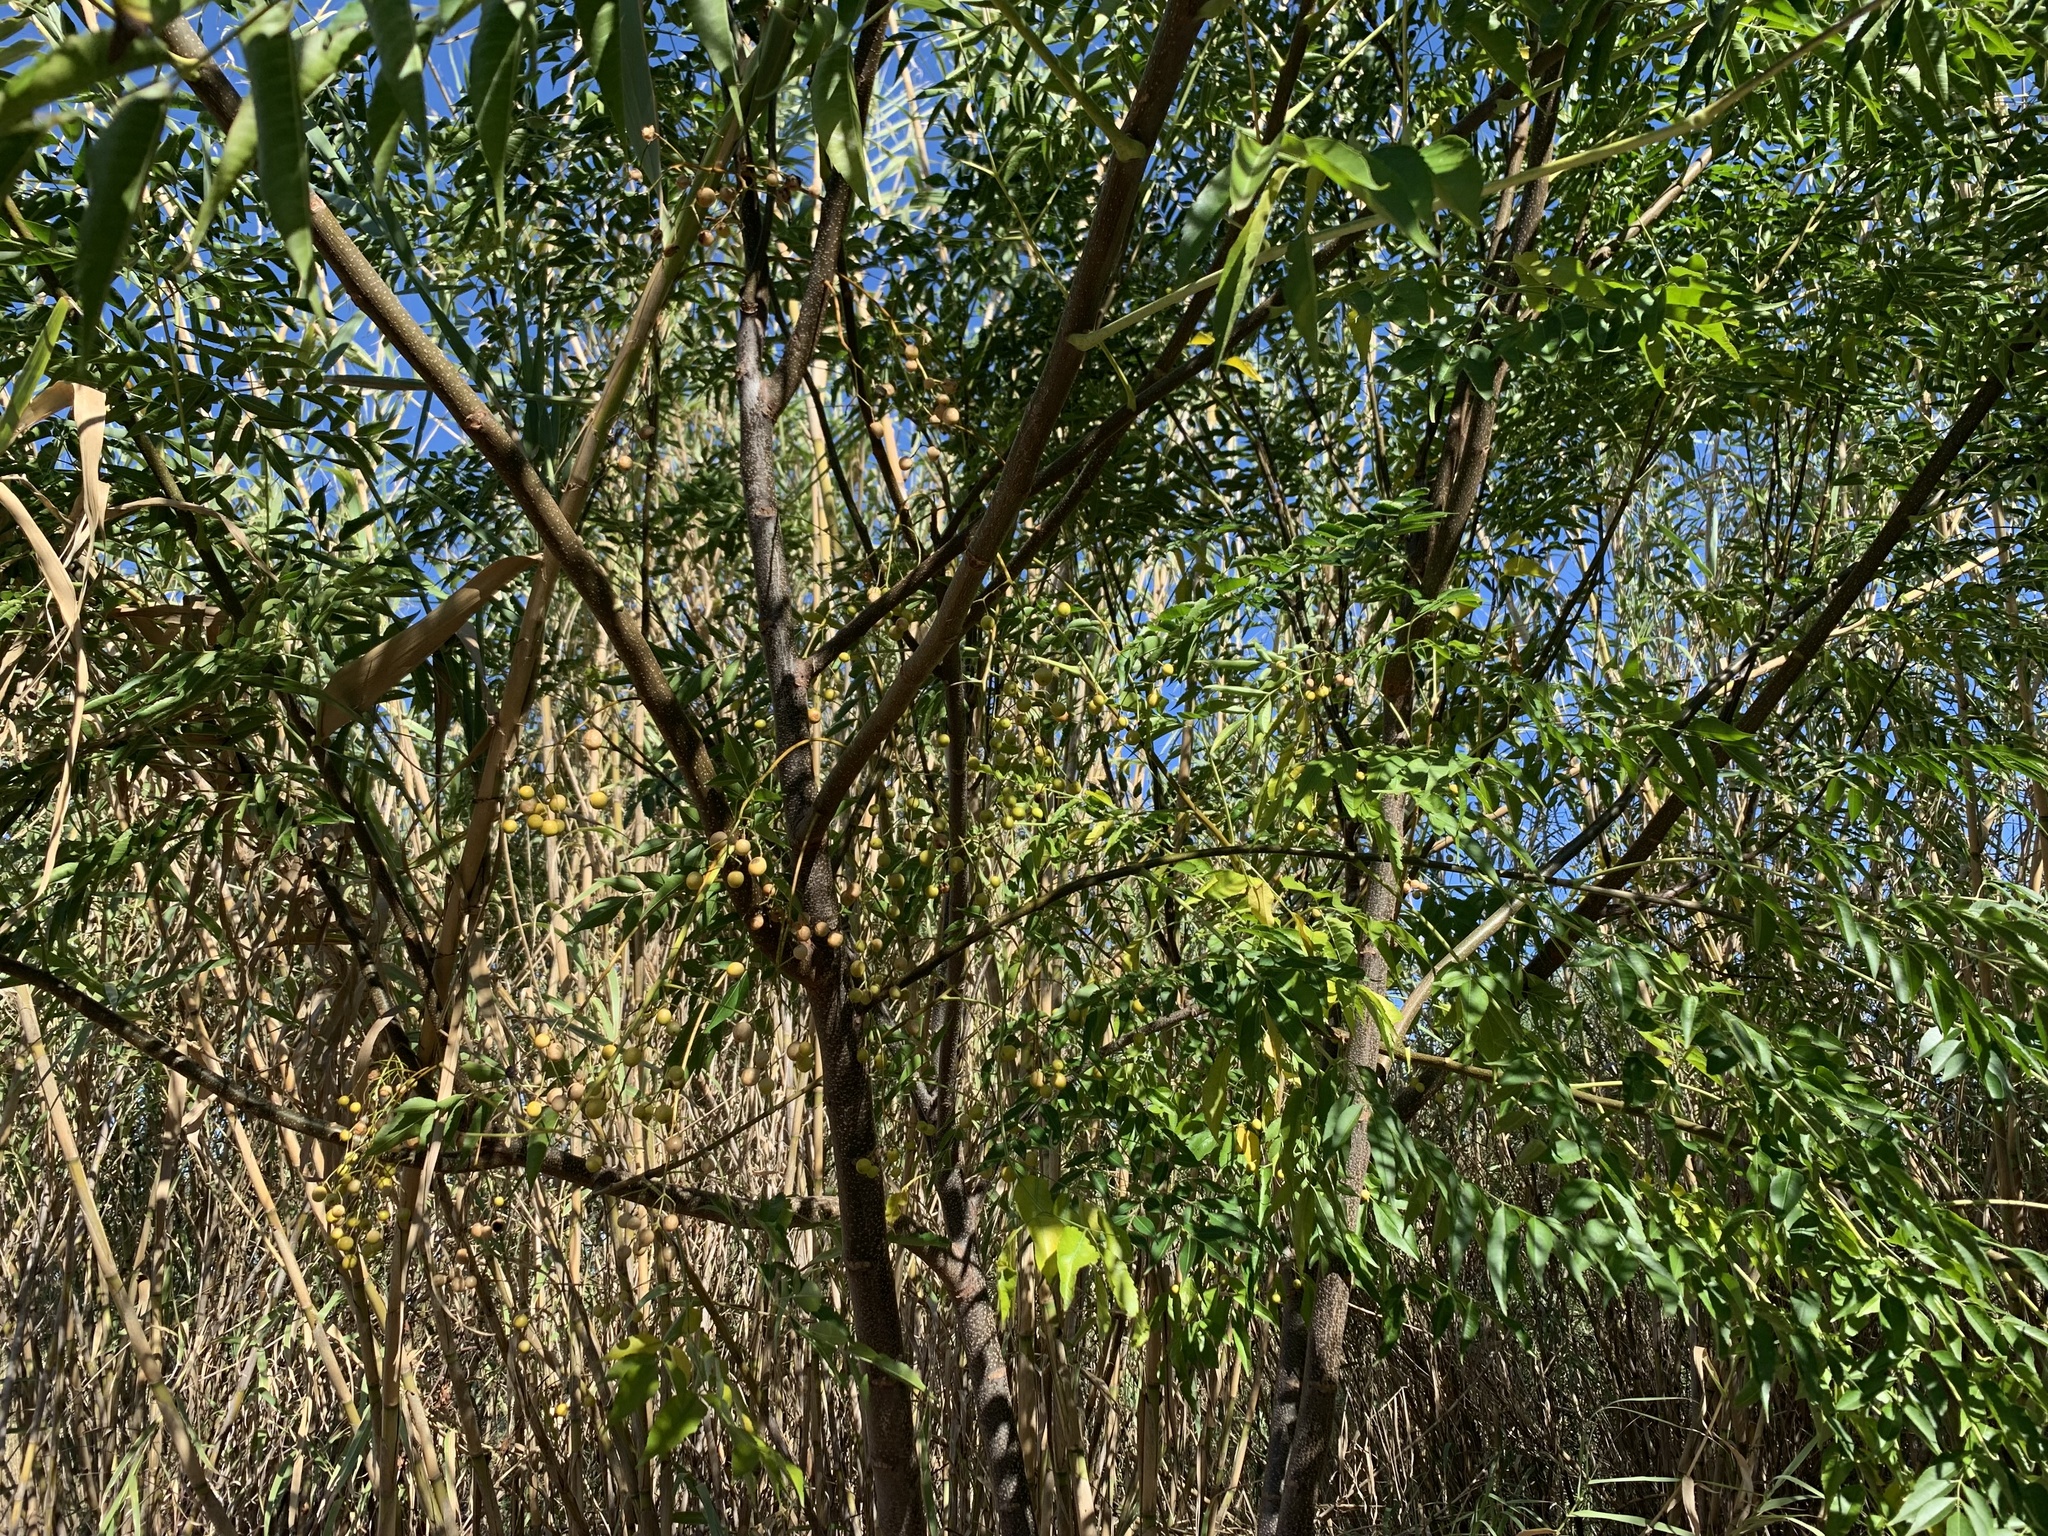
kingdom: Plantae
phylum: Tracheophyta
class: Magnoliopsida
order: Sapindales
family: Meliaceae
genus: Melia
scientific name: Melia azedarach
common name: Chinaberrytree
